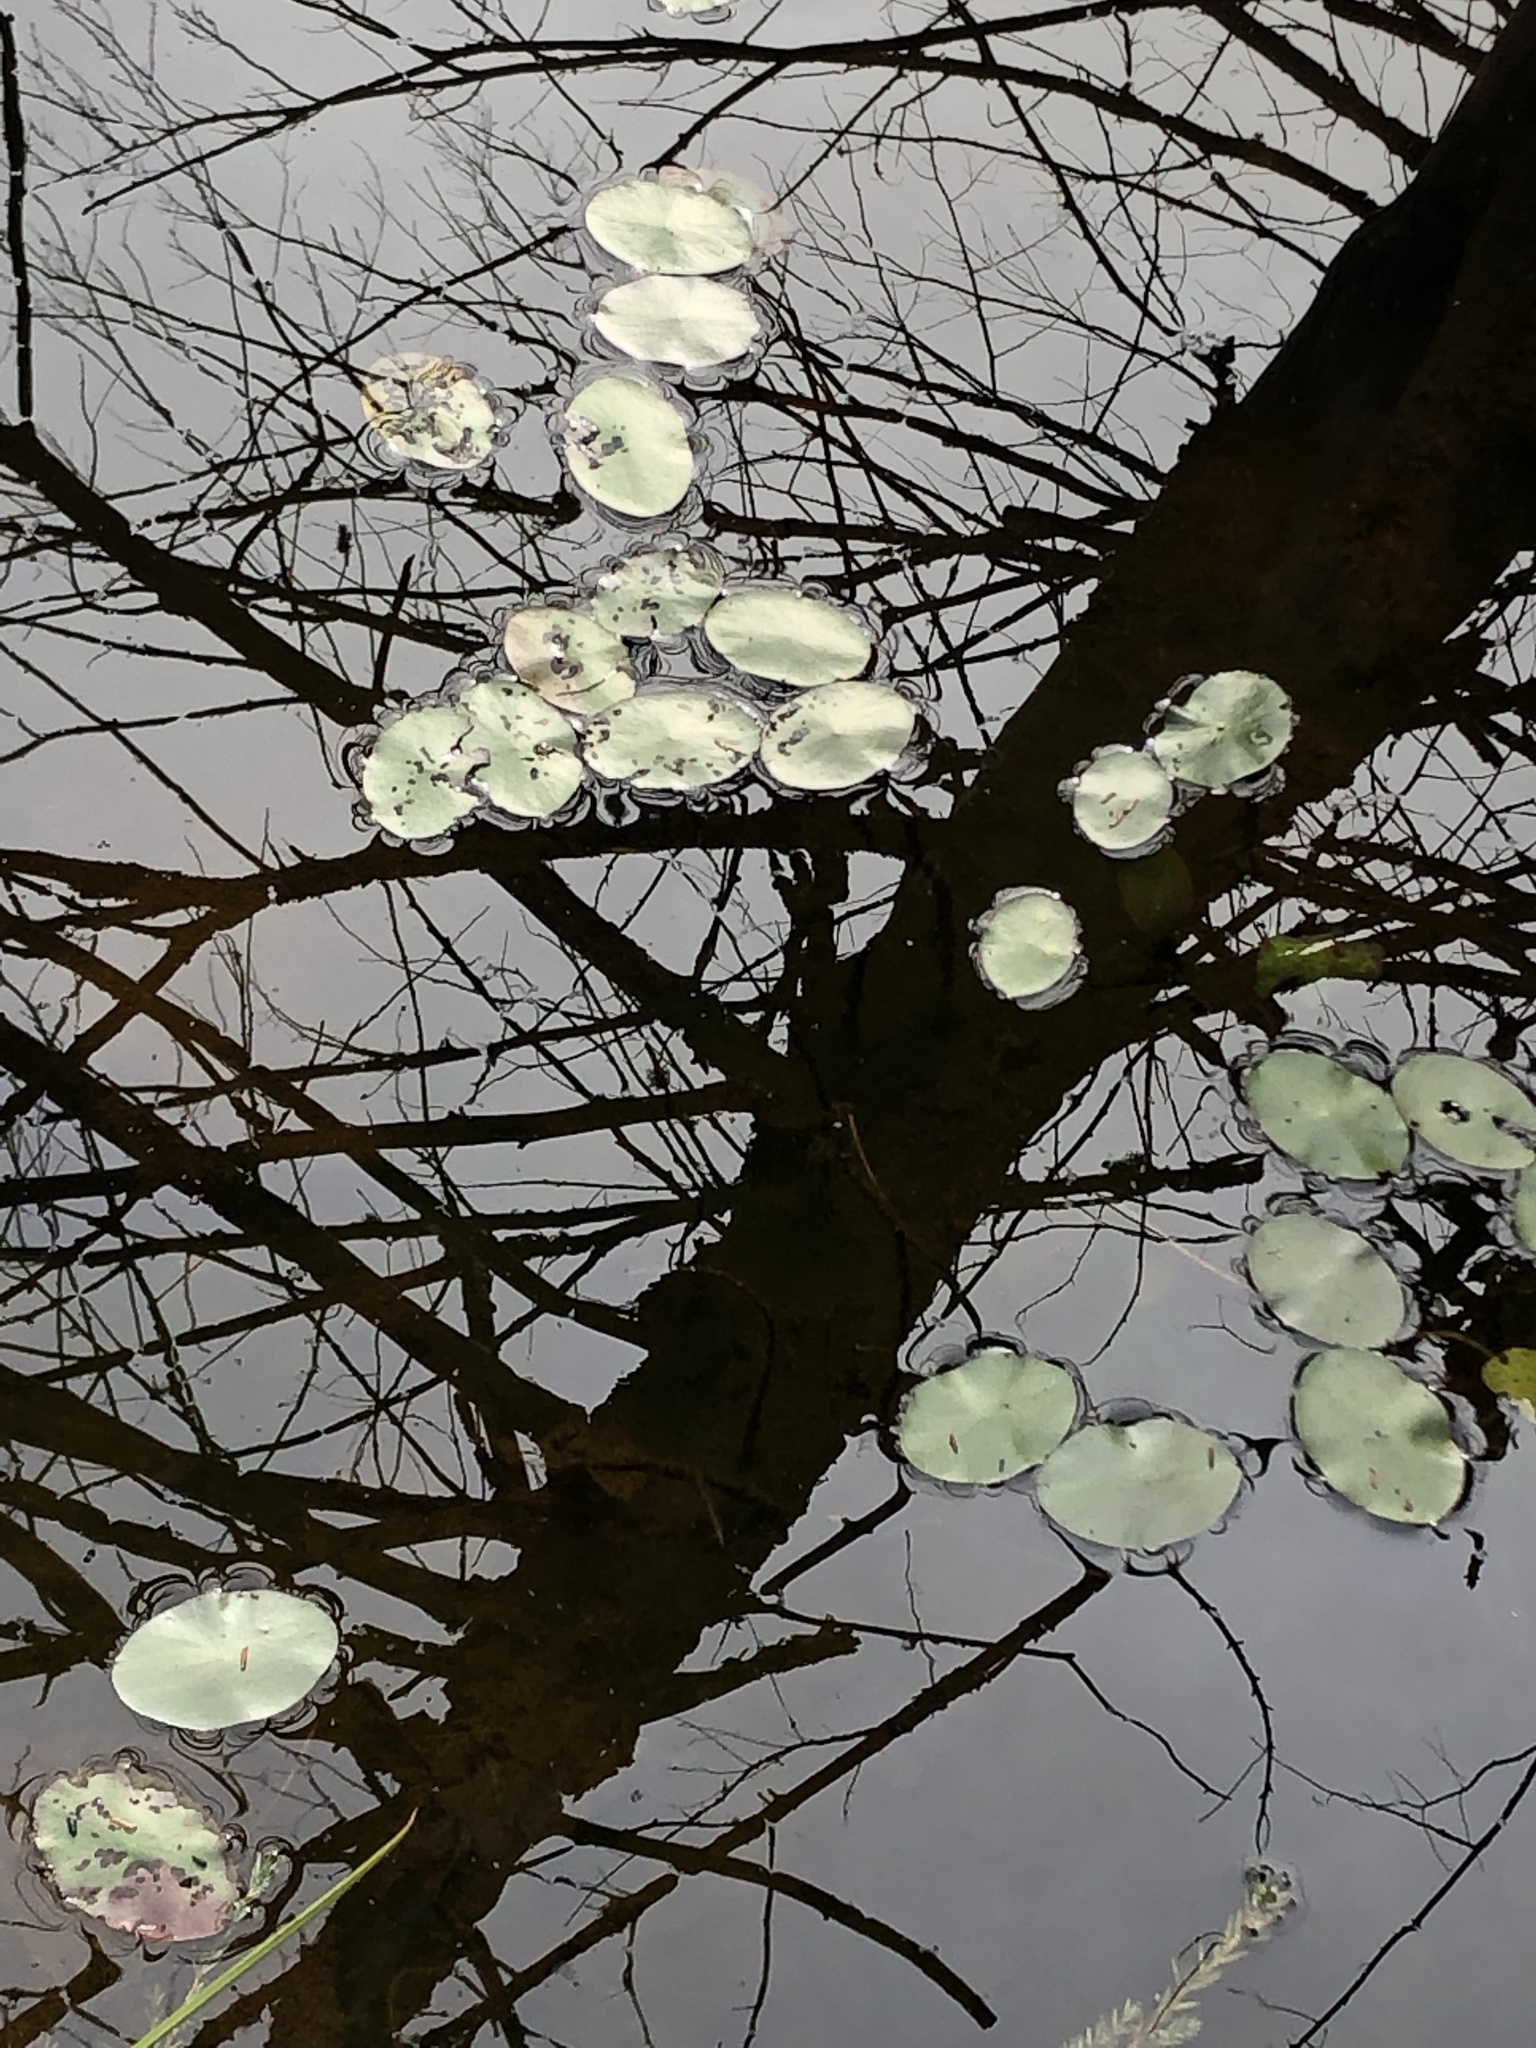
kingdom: Plantae
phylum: Tracheophyta
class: Magnoliopsida
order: Nymphaeales
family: Cabombaceae
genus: Brasenia
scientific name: Brasenia schreberi
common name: Water-shield
